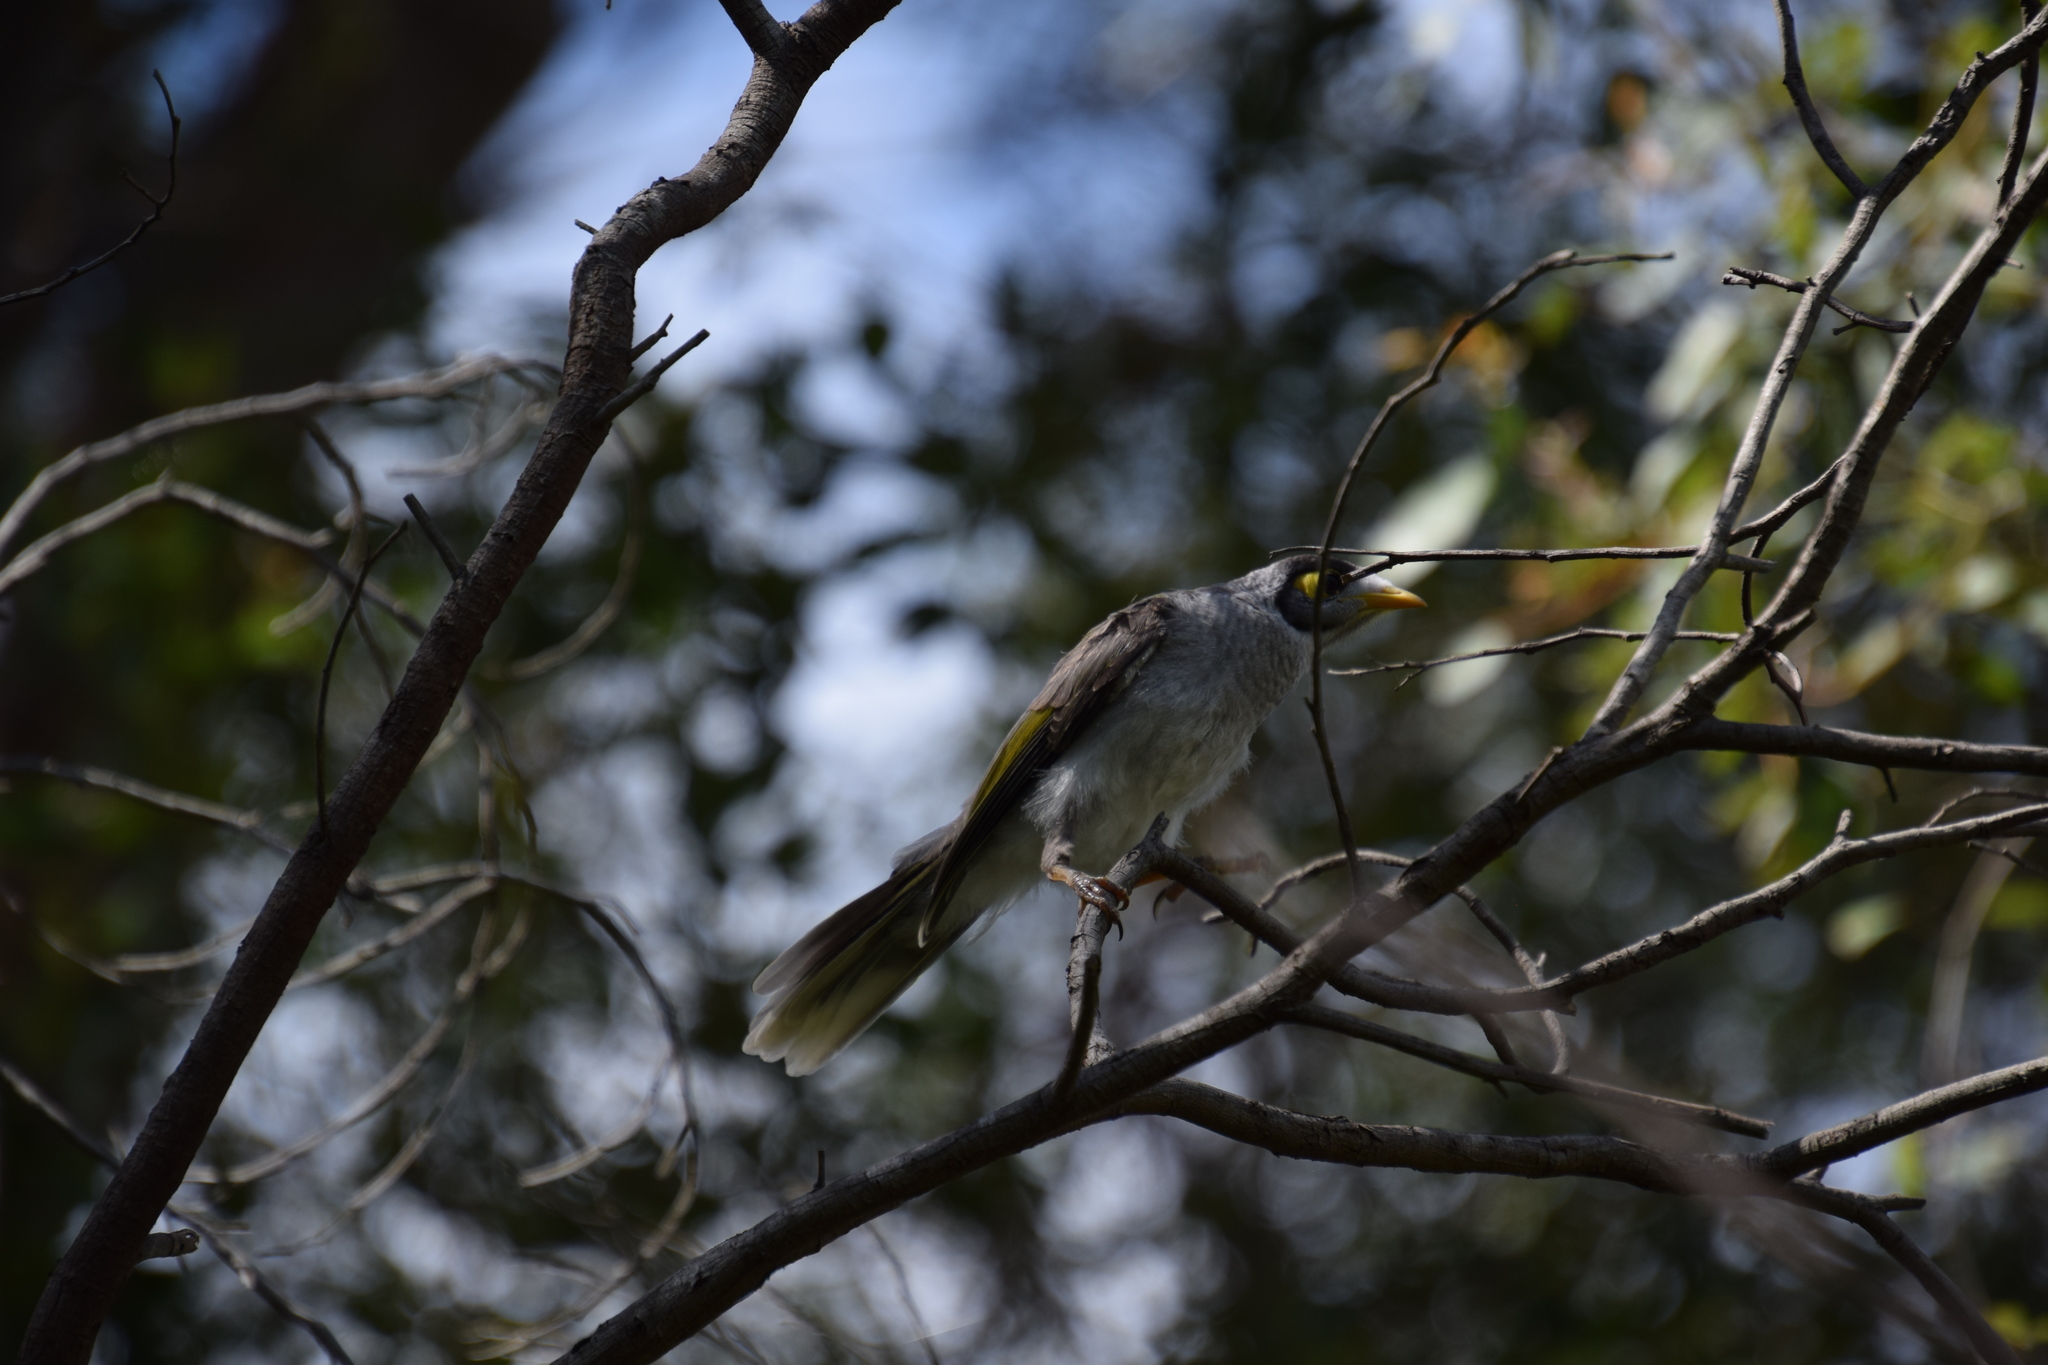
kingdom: Animalia
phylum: Chordata
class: Aves
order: Passeriformes
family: Meliphagidae
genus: Manorina
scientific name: Manorina melanocephala
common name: Noisy miner
